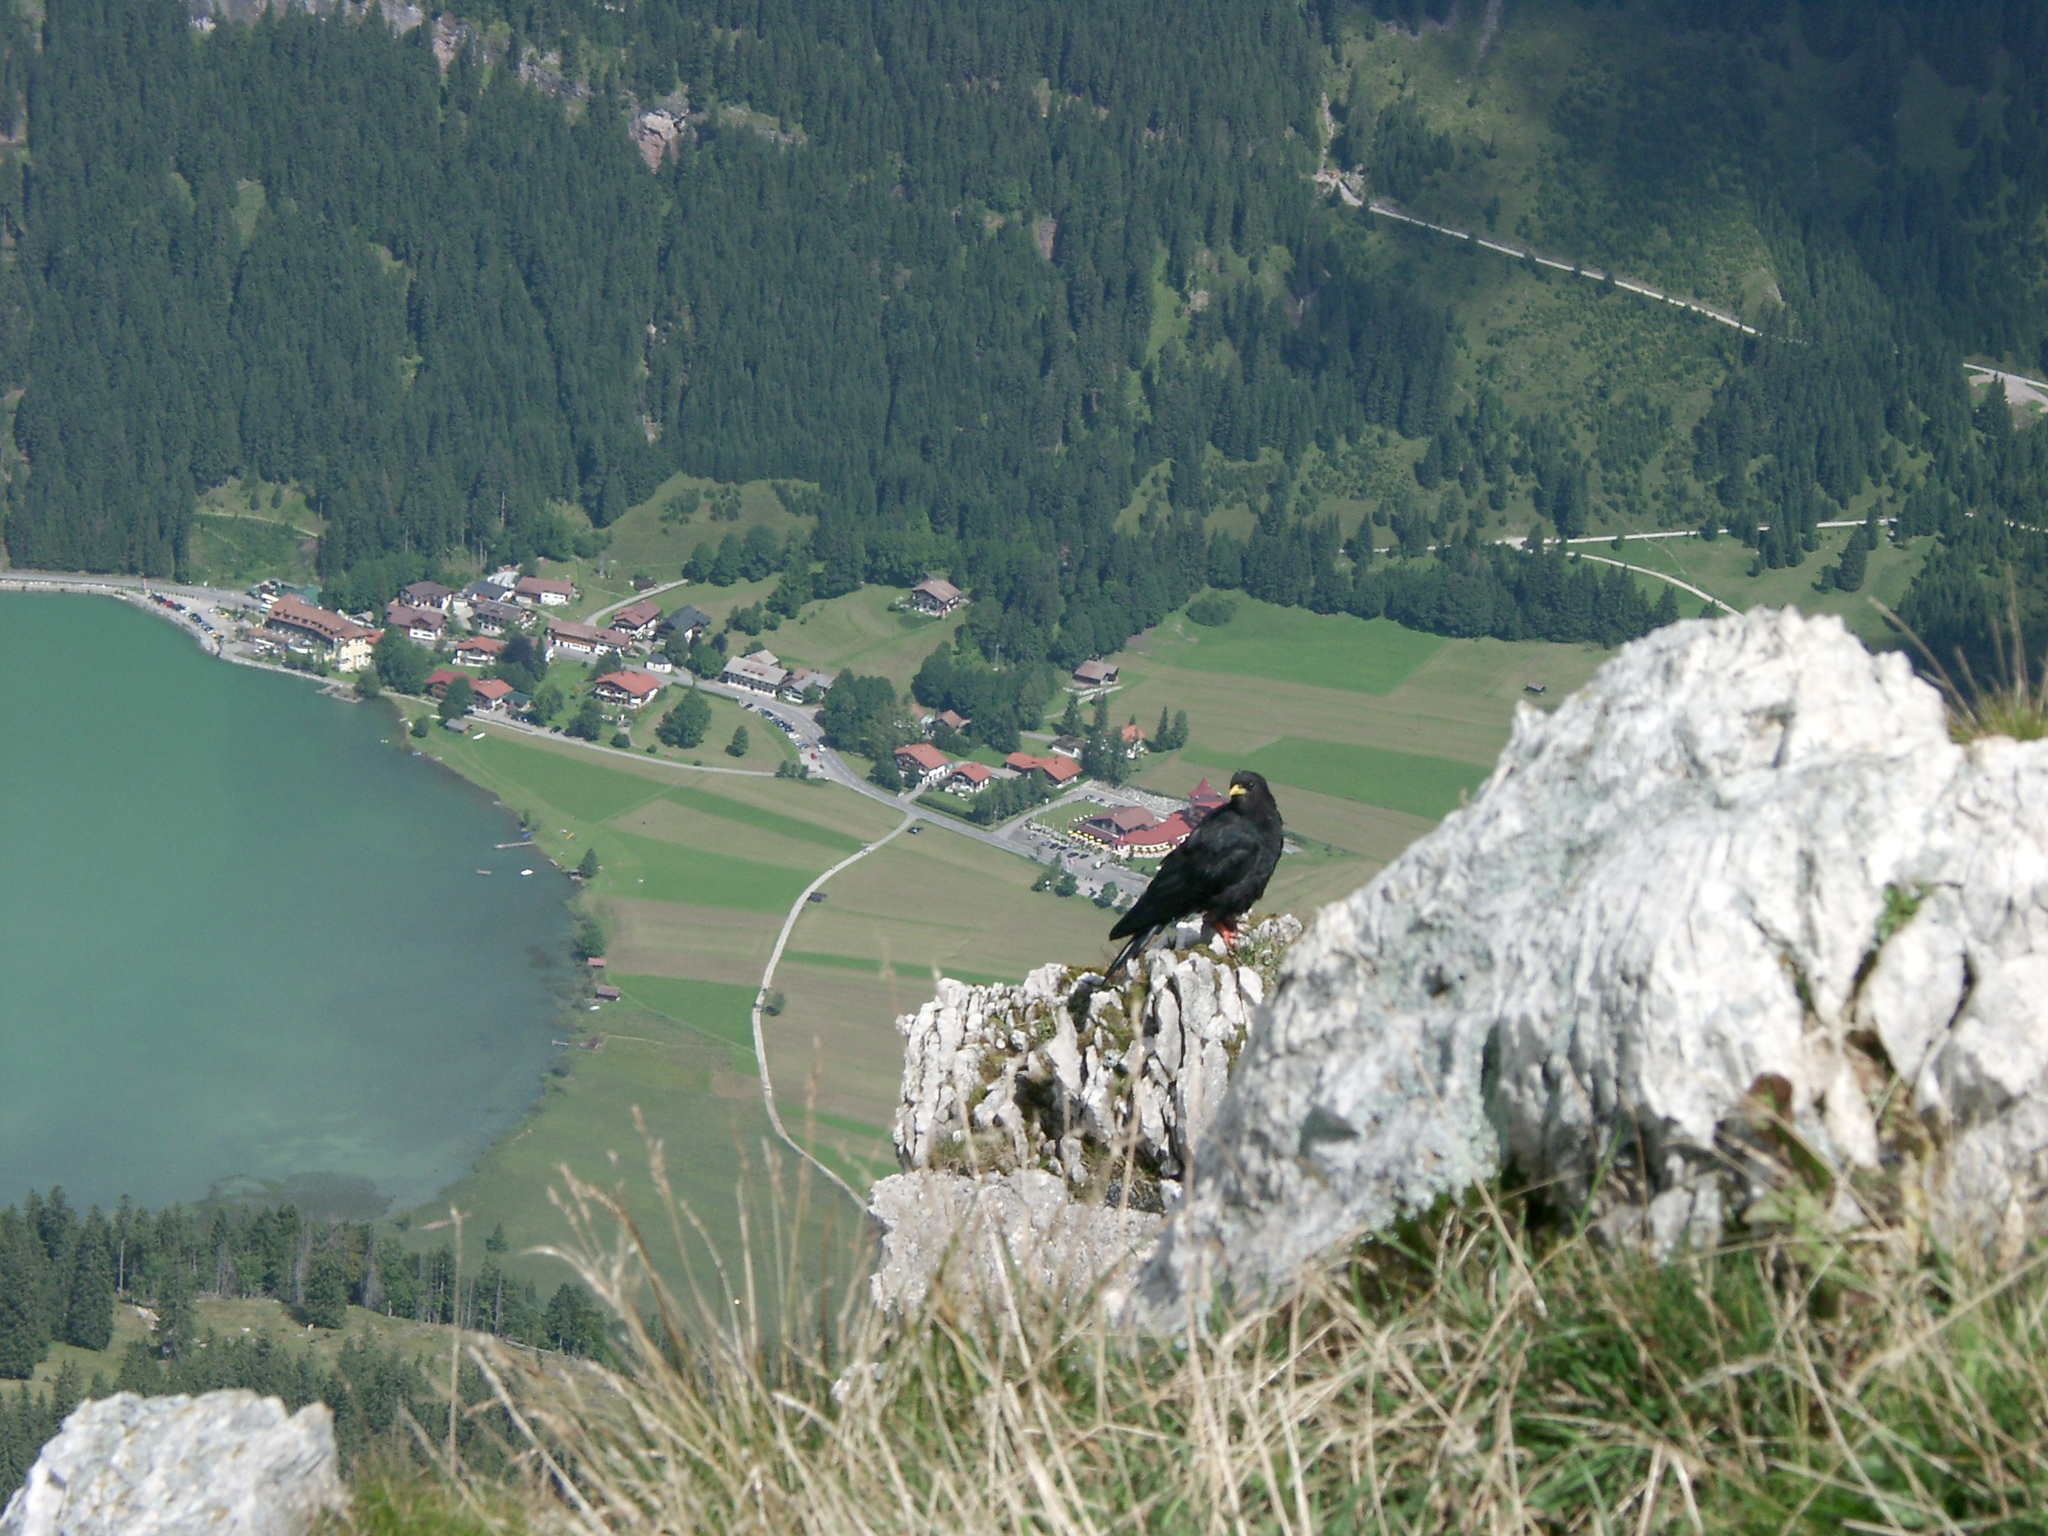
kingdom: Animalia
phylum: Chordata
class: Aves
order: Passeriformes
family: Corvidae
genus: Pyrrhocorax
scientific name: Pyrrhocorax graculus
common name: Alpine chough
